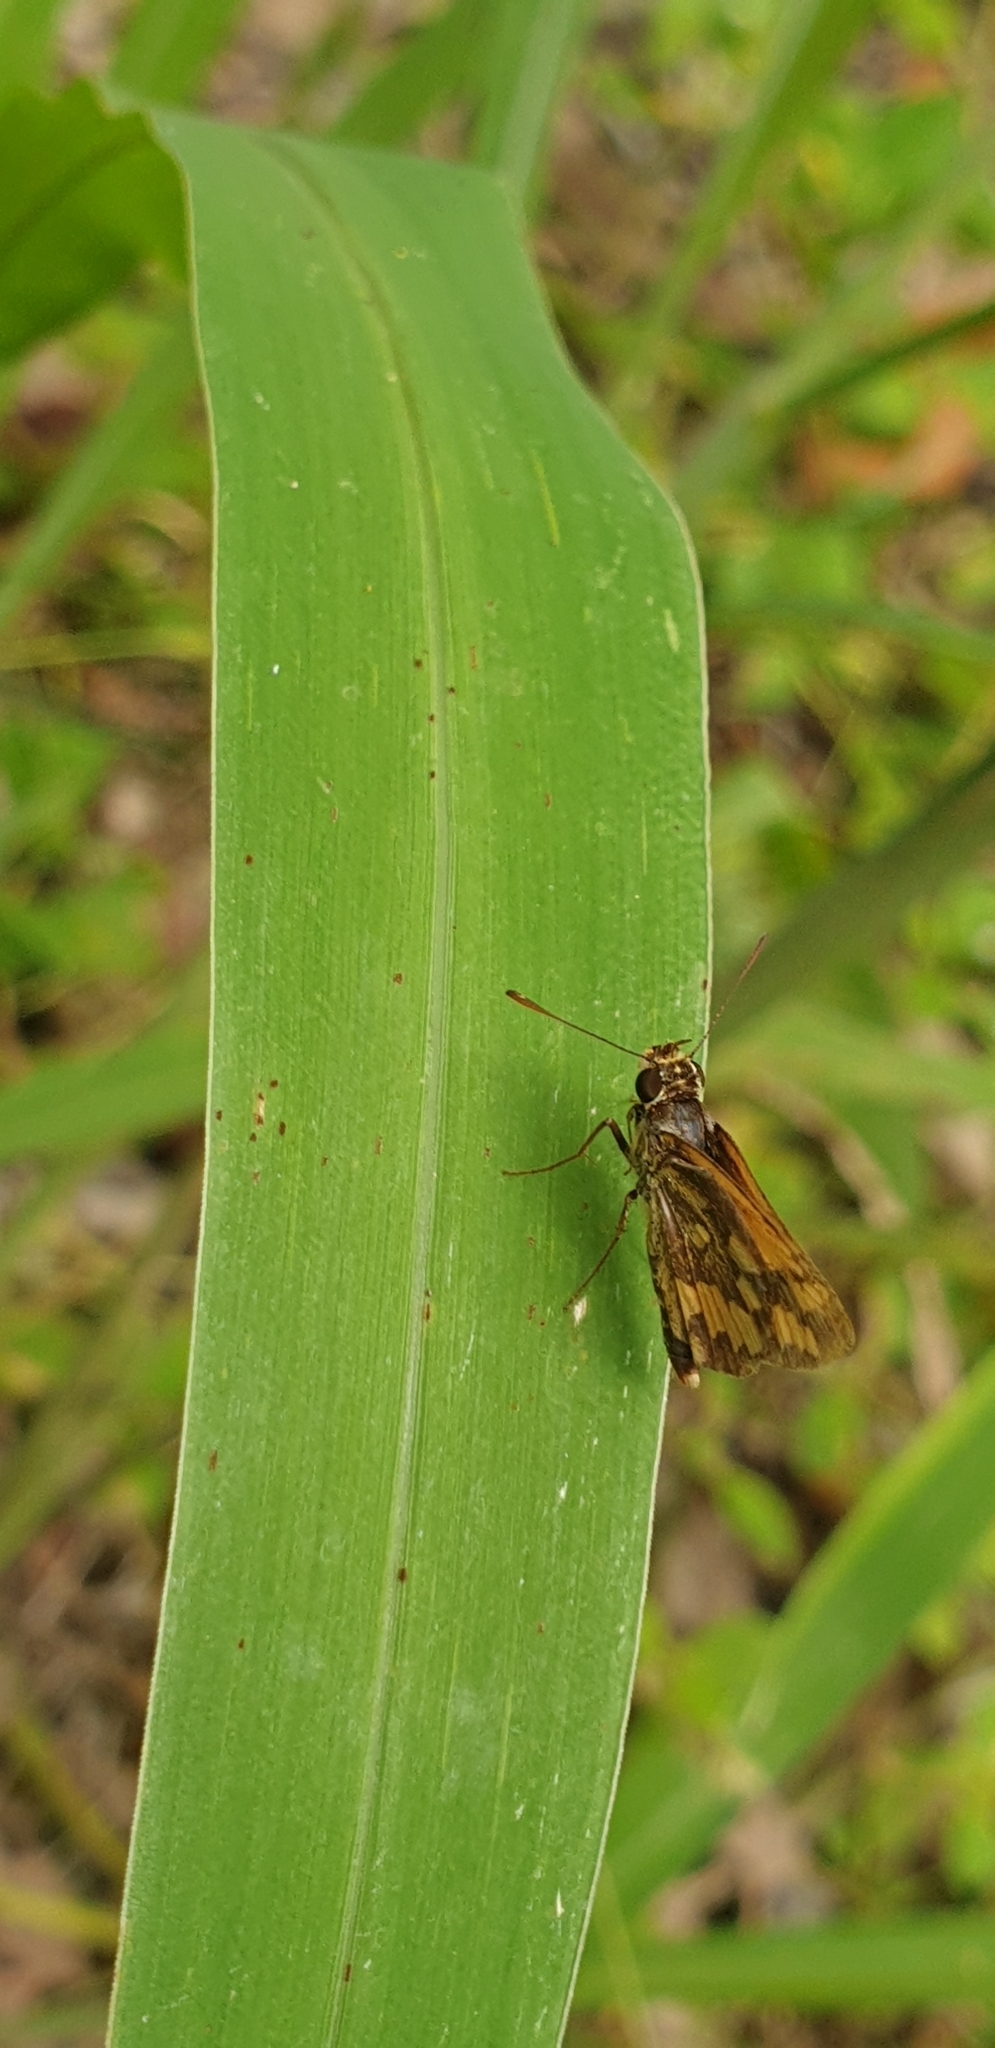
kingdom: Animalia
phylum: Arthropoda
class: Insecta
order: Lepidoptera
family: Hesperiidae
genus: Suniana
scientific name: Suniana sunias
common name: Wide-brand grass-dart
